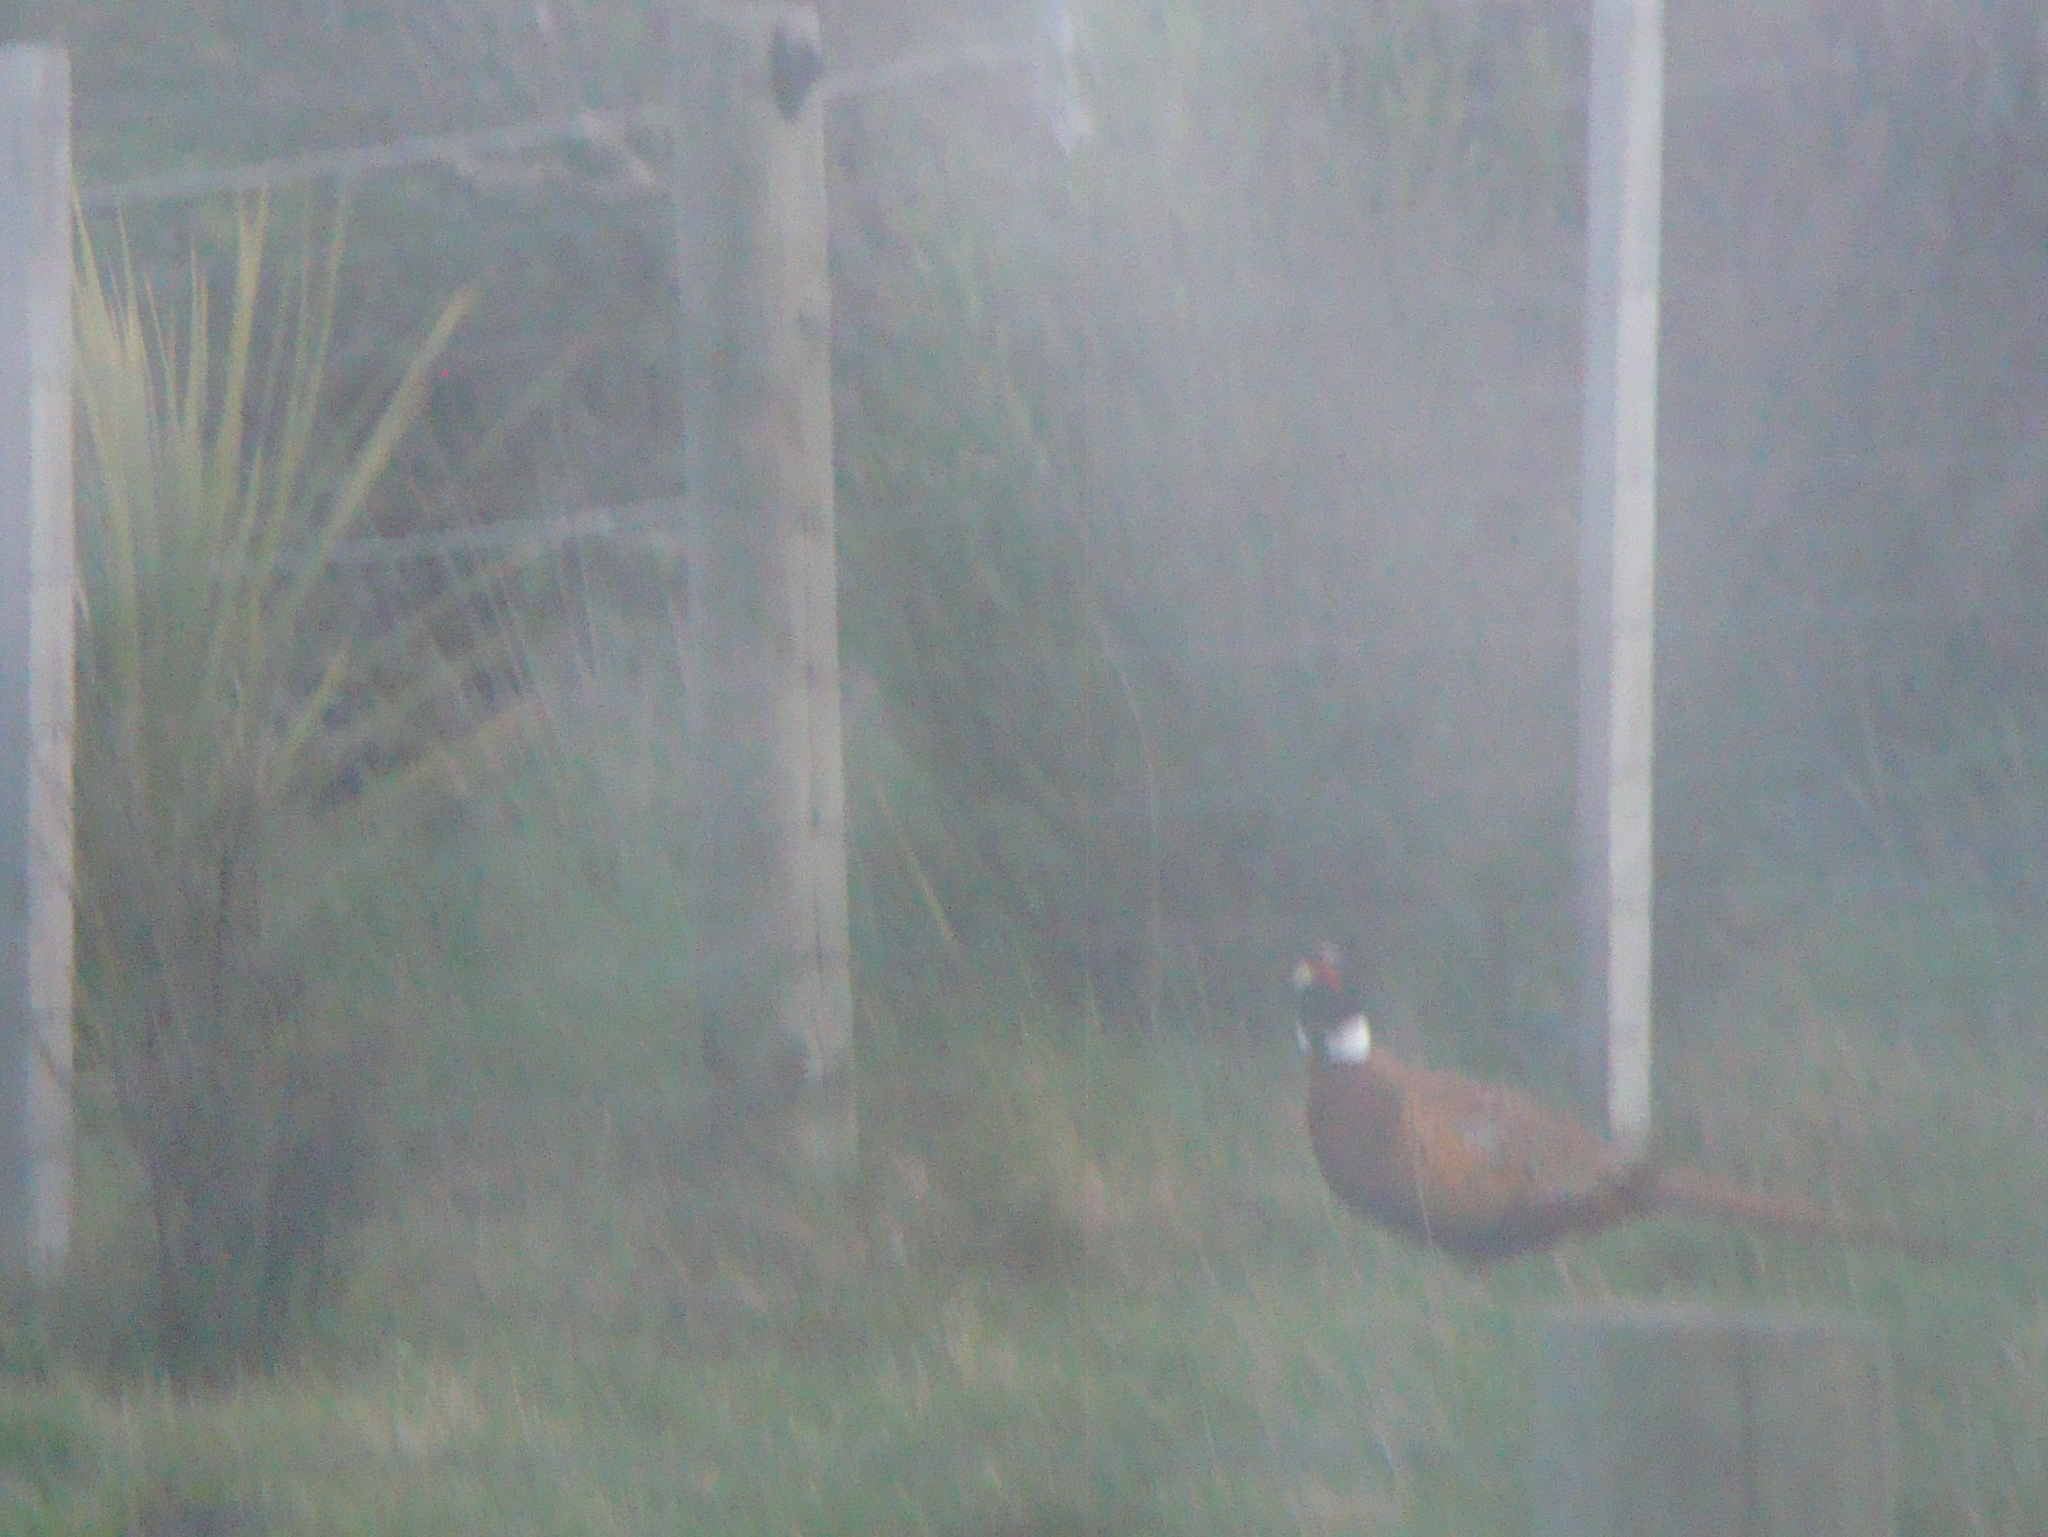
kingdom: Animalia
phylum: Chordata
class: Aves
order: Galliformes
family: Phasianidae
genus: Phasianus
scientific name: Phasianus colchicus
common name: Common pheasant
